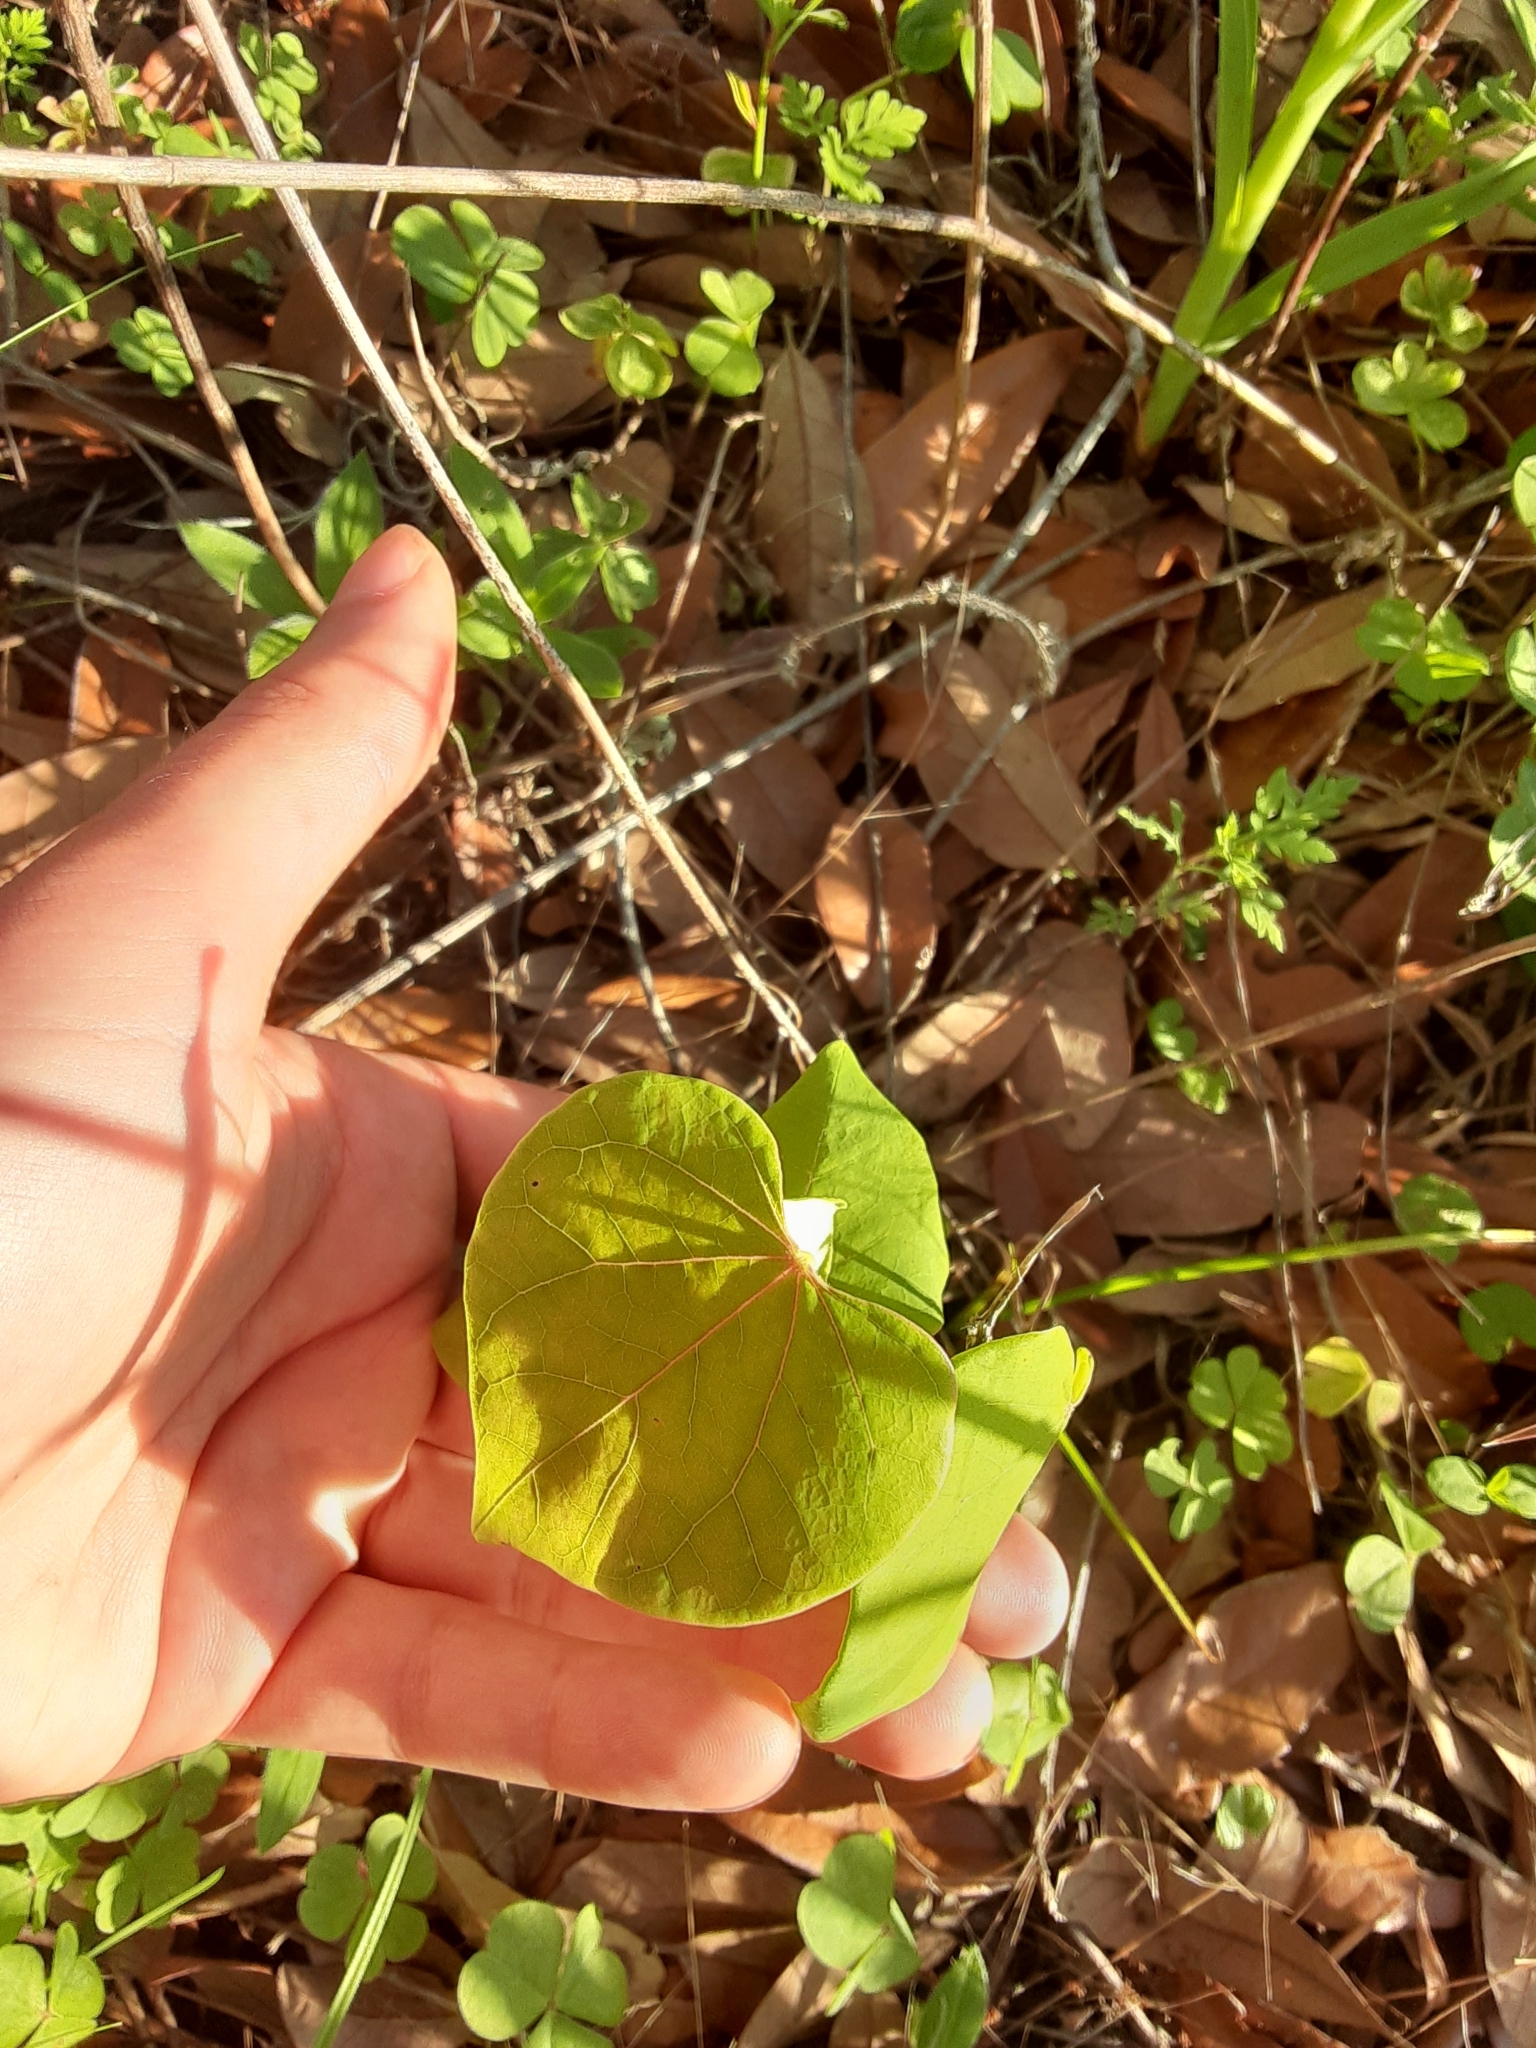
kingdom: Plantae
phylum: Tracheophyta
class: Magnoliopsida
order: Fabales
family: Fabaceae
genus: Cercis
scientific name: Cercis canadensis
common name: Eastern redbud
